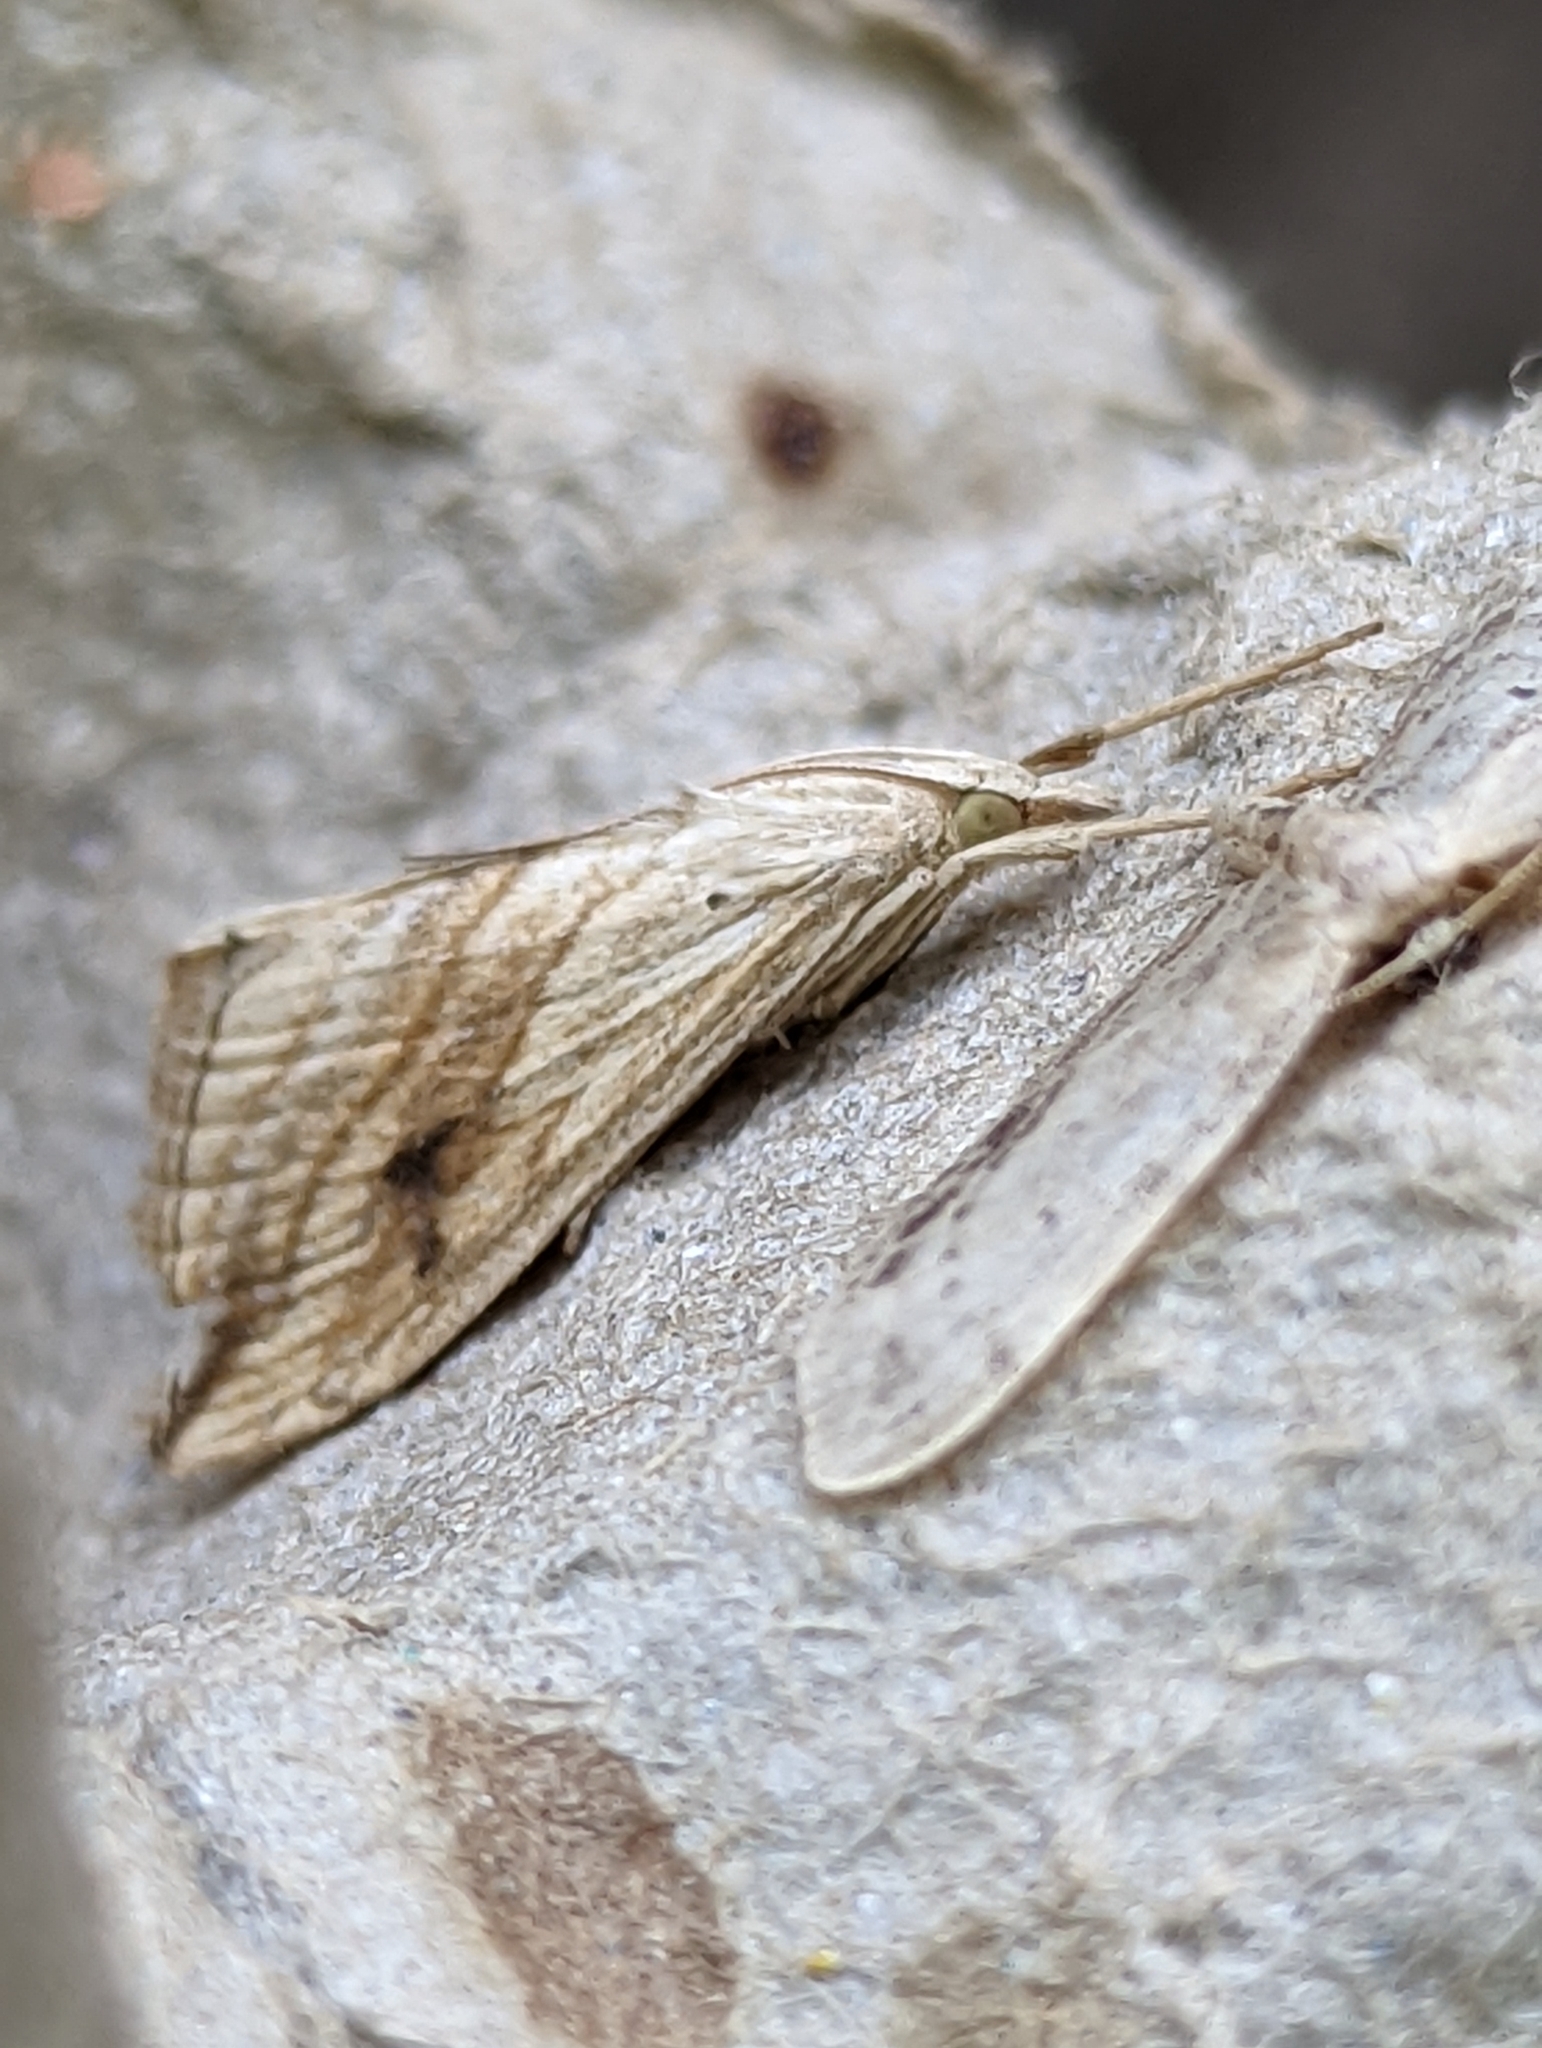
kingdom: Animalia
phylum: Arthropoda
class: Insecta
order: Lepidoptera
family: Crambidae
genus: Evergestis
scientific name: Evergestis forficalis
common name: Garden pebble
